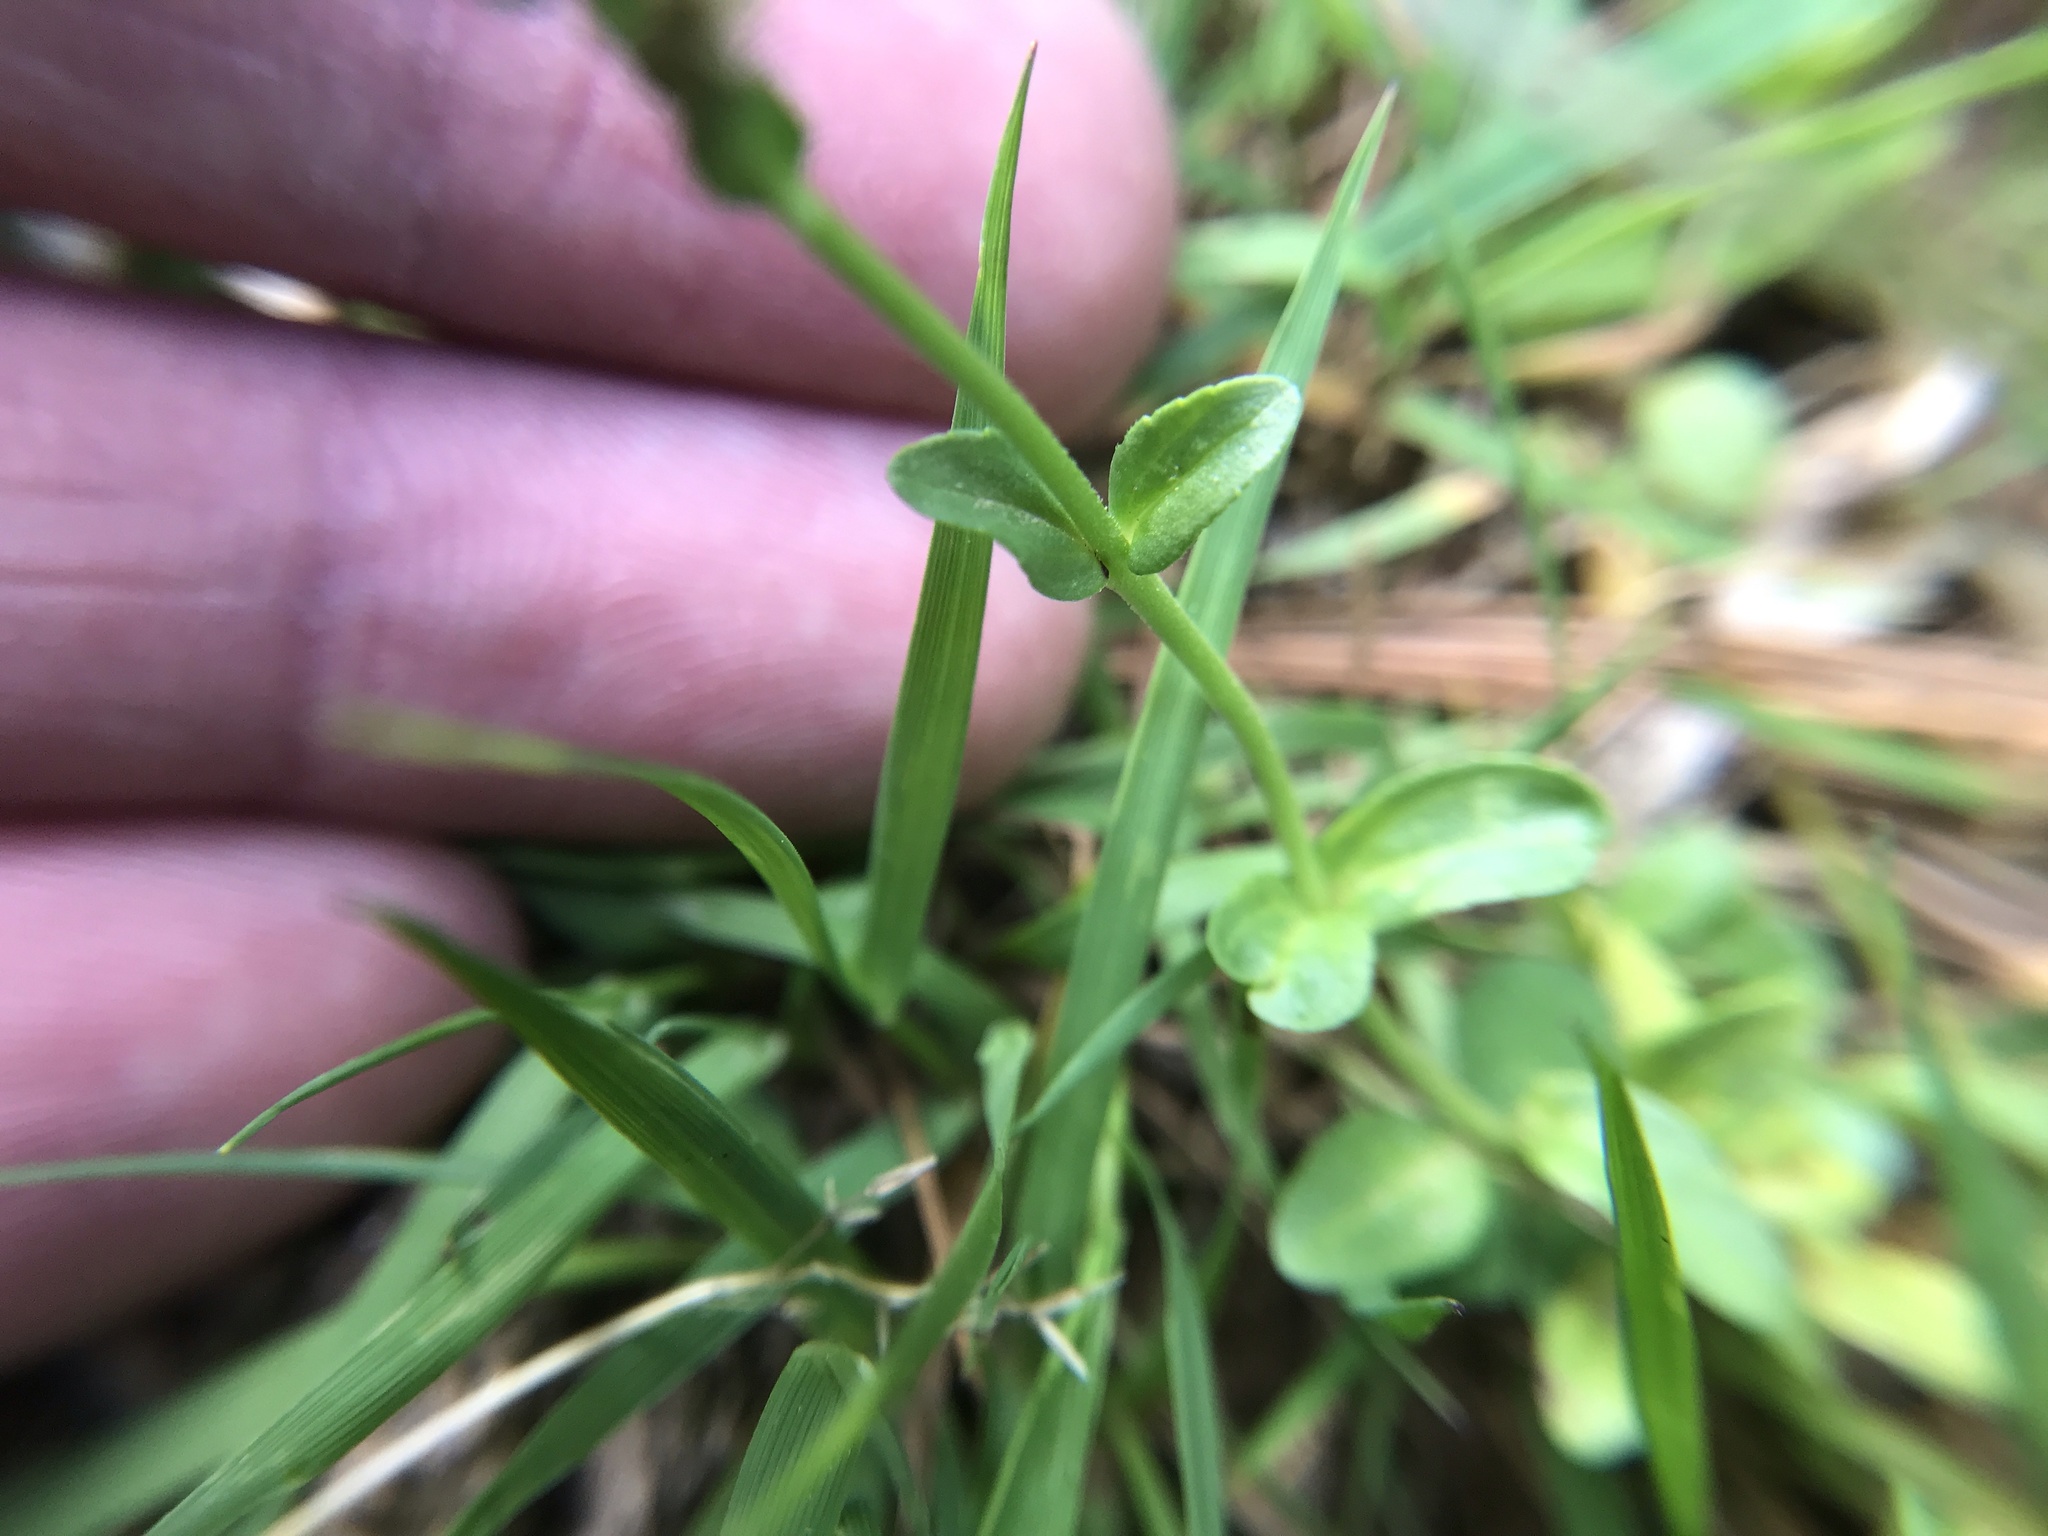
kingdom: Plantae
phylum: Tracheophyta
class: Magnoliopsida
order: Lamiales
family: Plantaginaceae
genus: Veronica
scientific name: Veronica serpyllifolia
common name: Thyme-leaved speedwell
